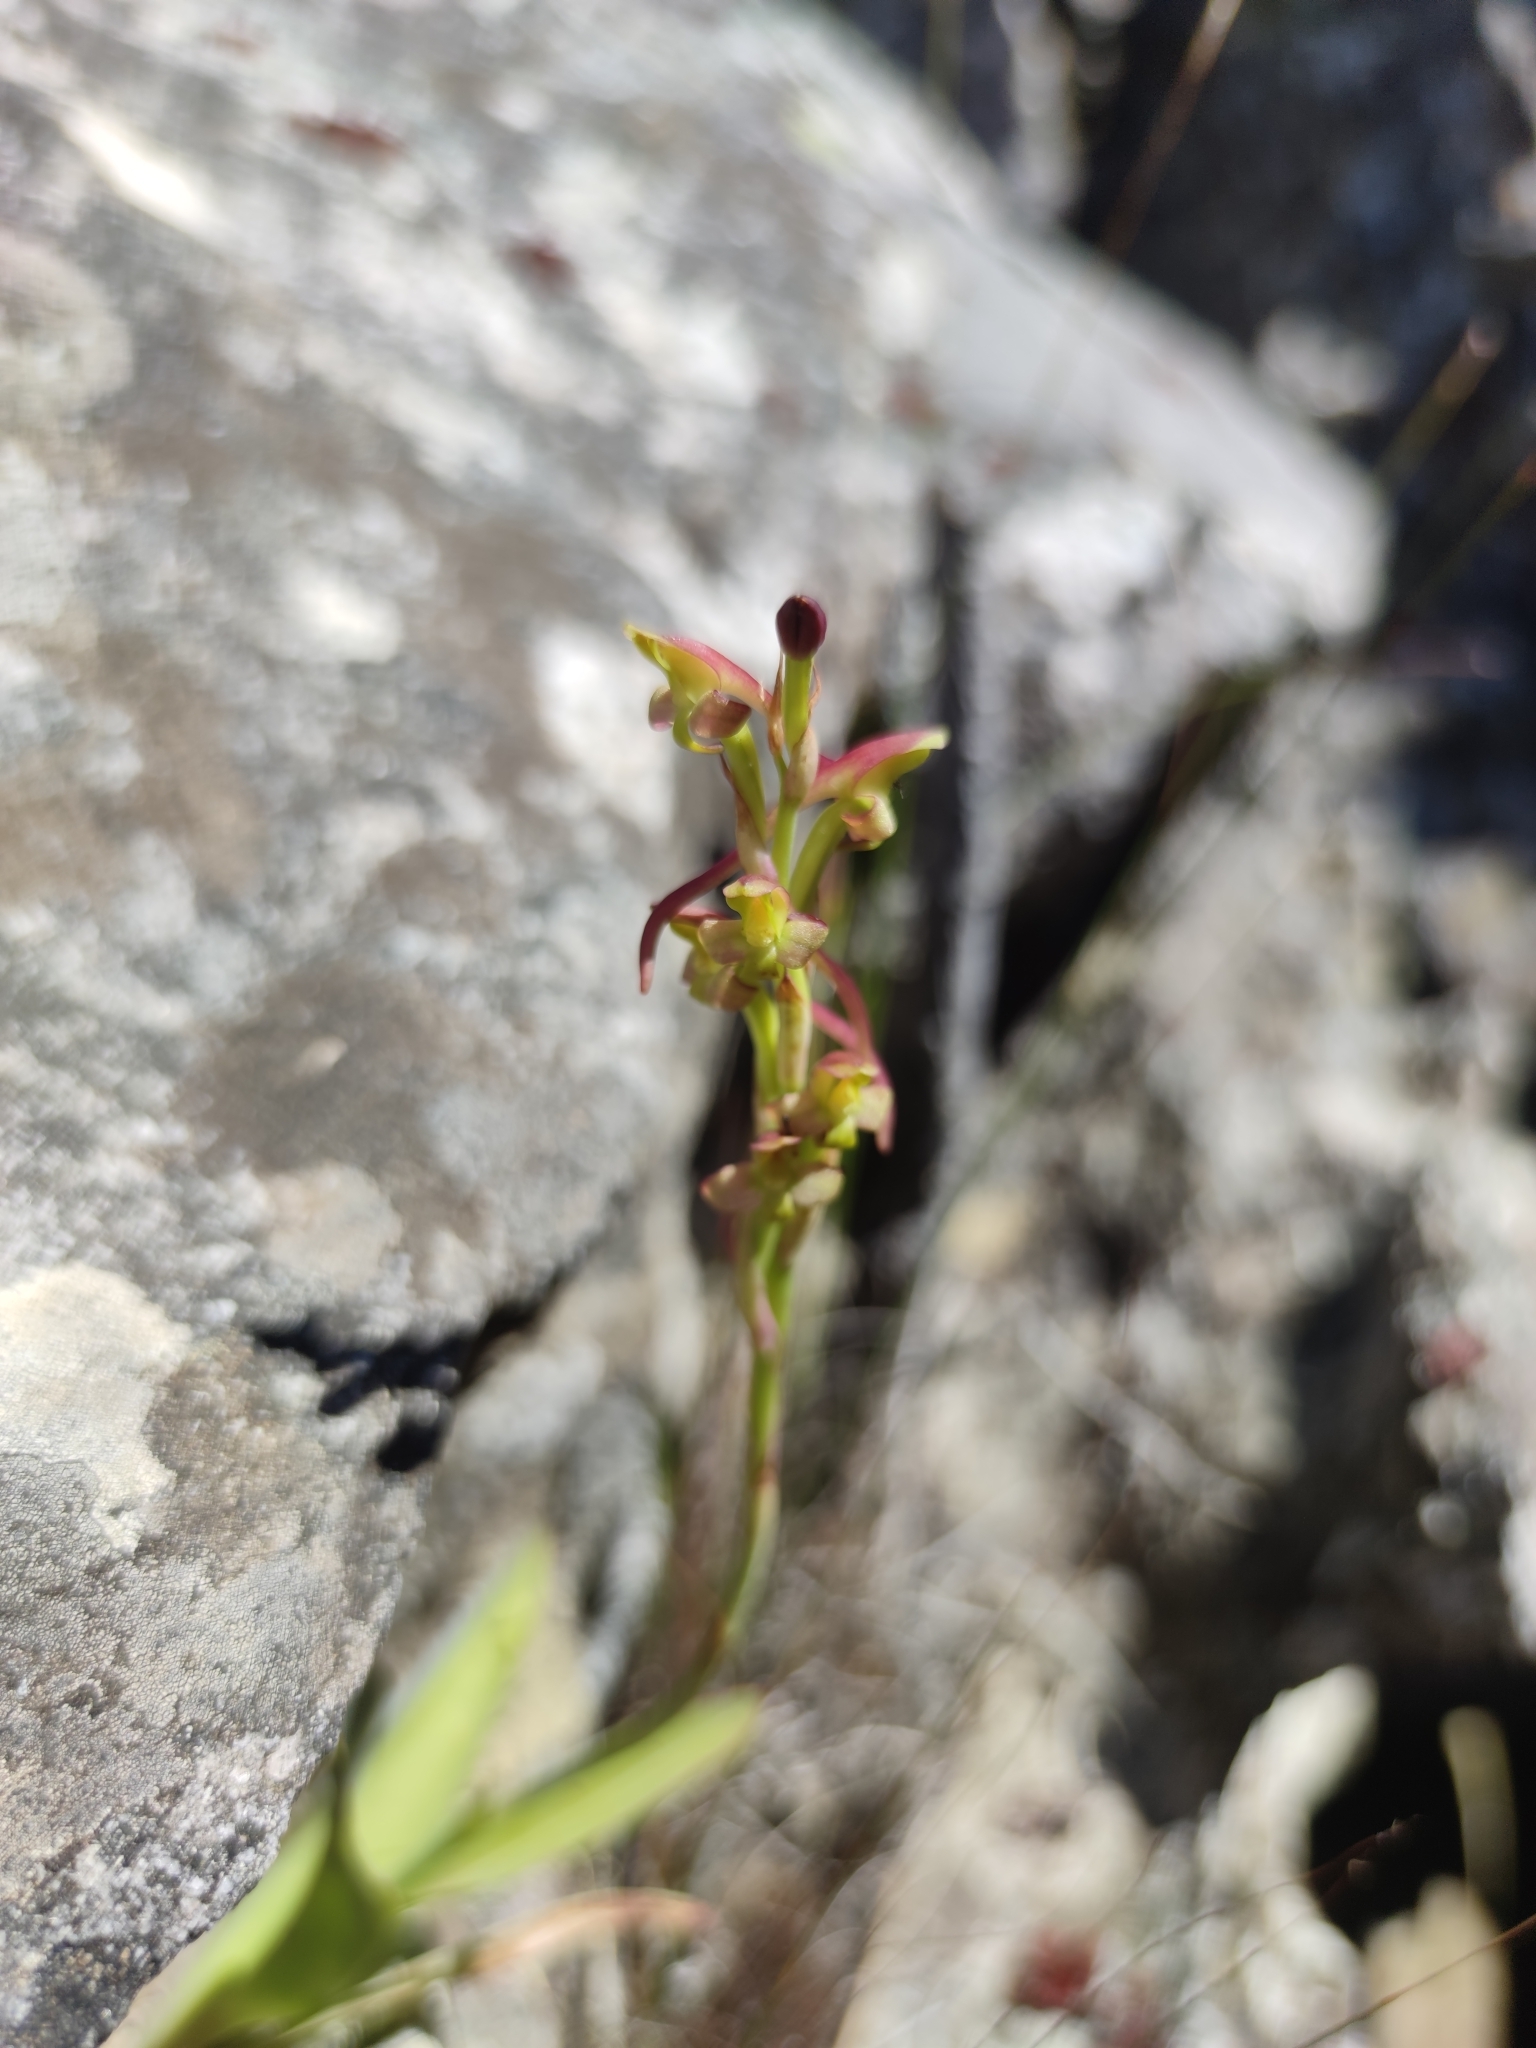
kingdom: Plantae
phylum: Tracheophyta
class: Liliopsida
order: Asparagales
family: Orchidaceae
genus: Disa
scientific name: Disa bolusiana
